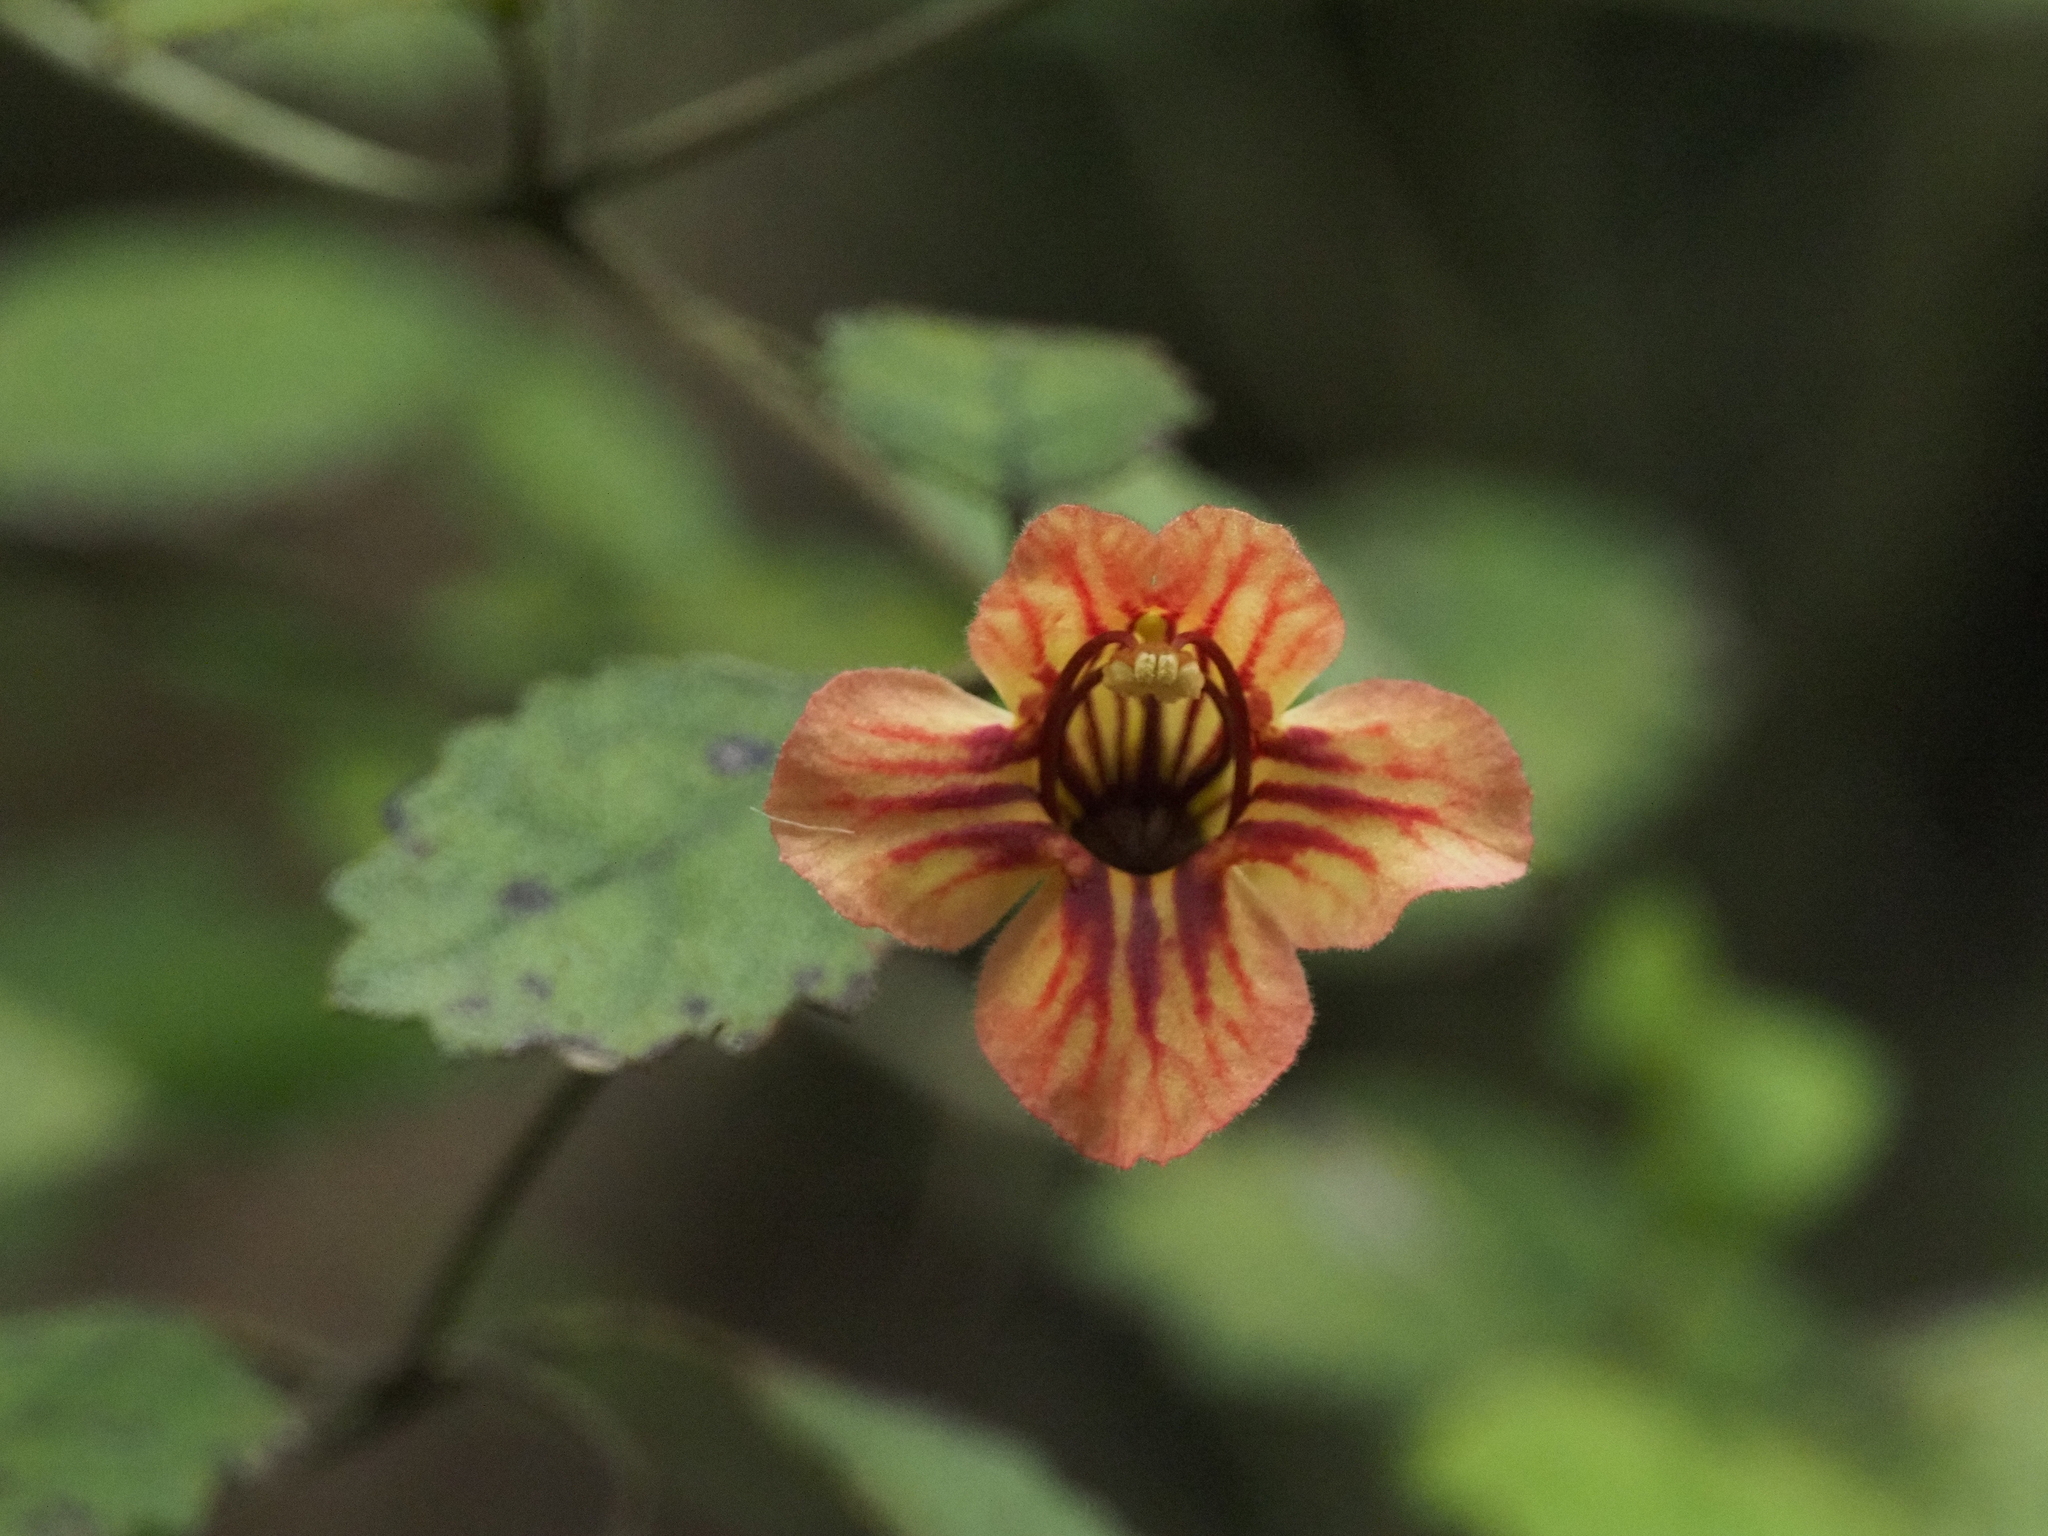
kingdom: Plantae
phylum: Tracheophyta
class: Magnoliopsida
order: Lamiales
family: Gesneriaceae
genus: Rhabdothamnus
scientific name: Rhabdothamnus solandri
